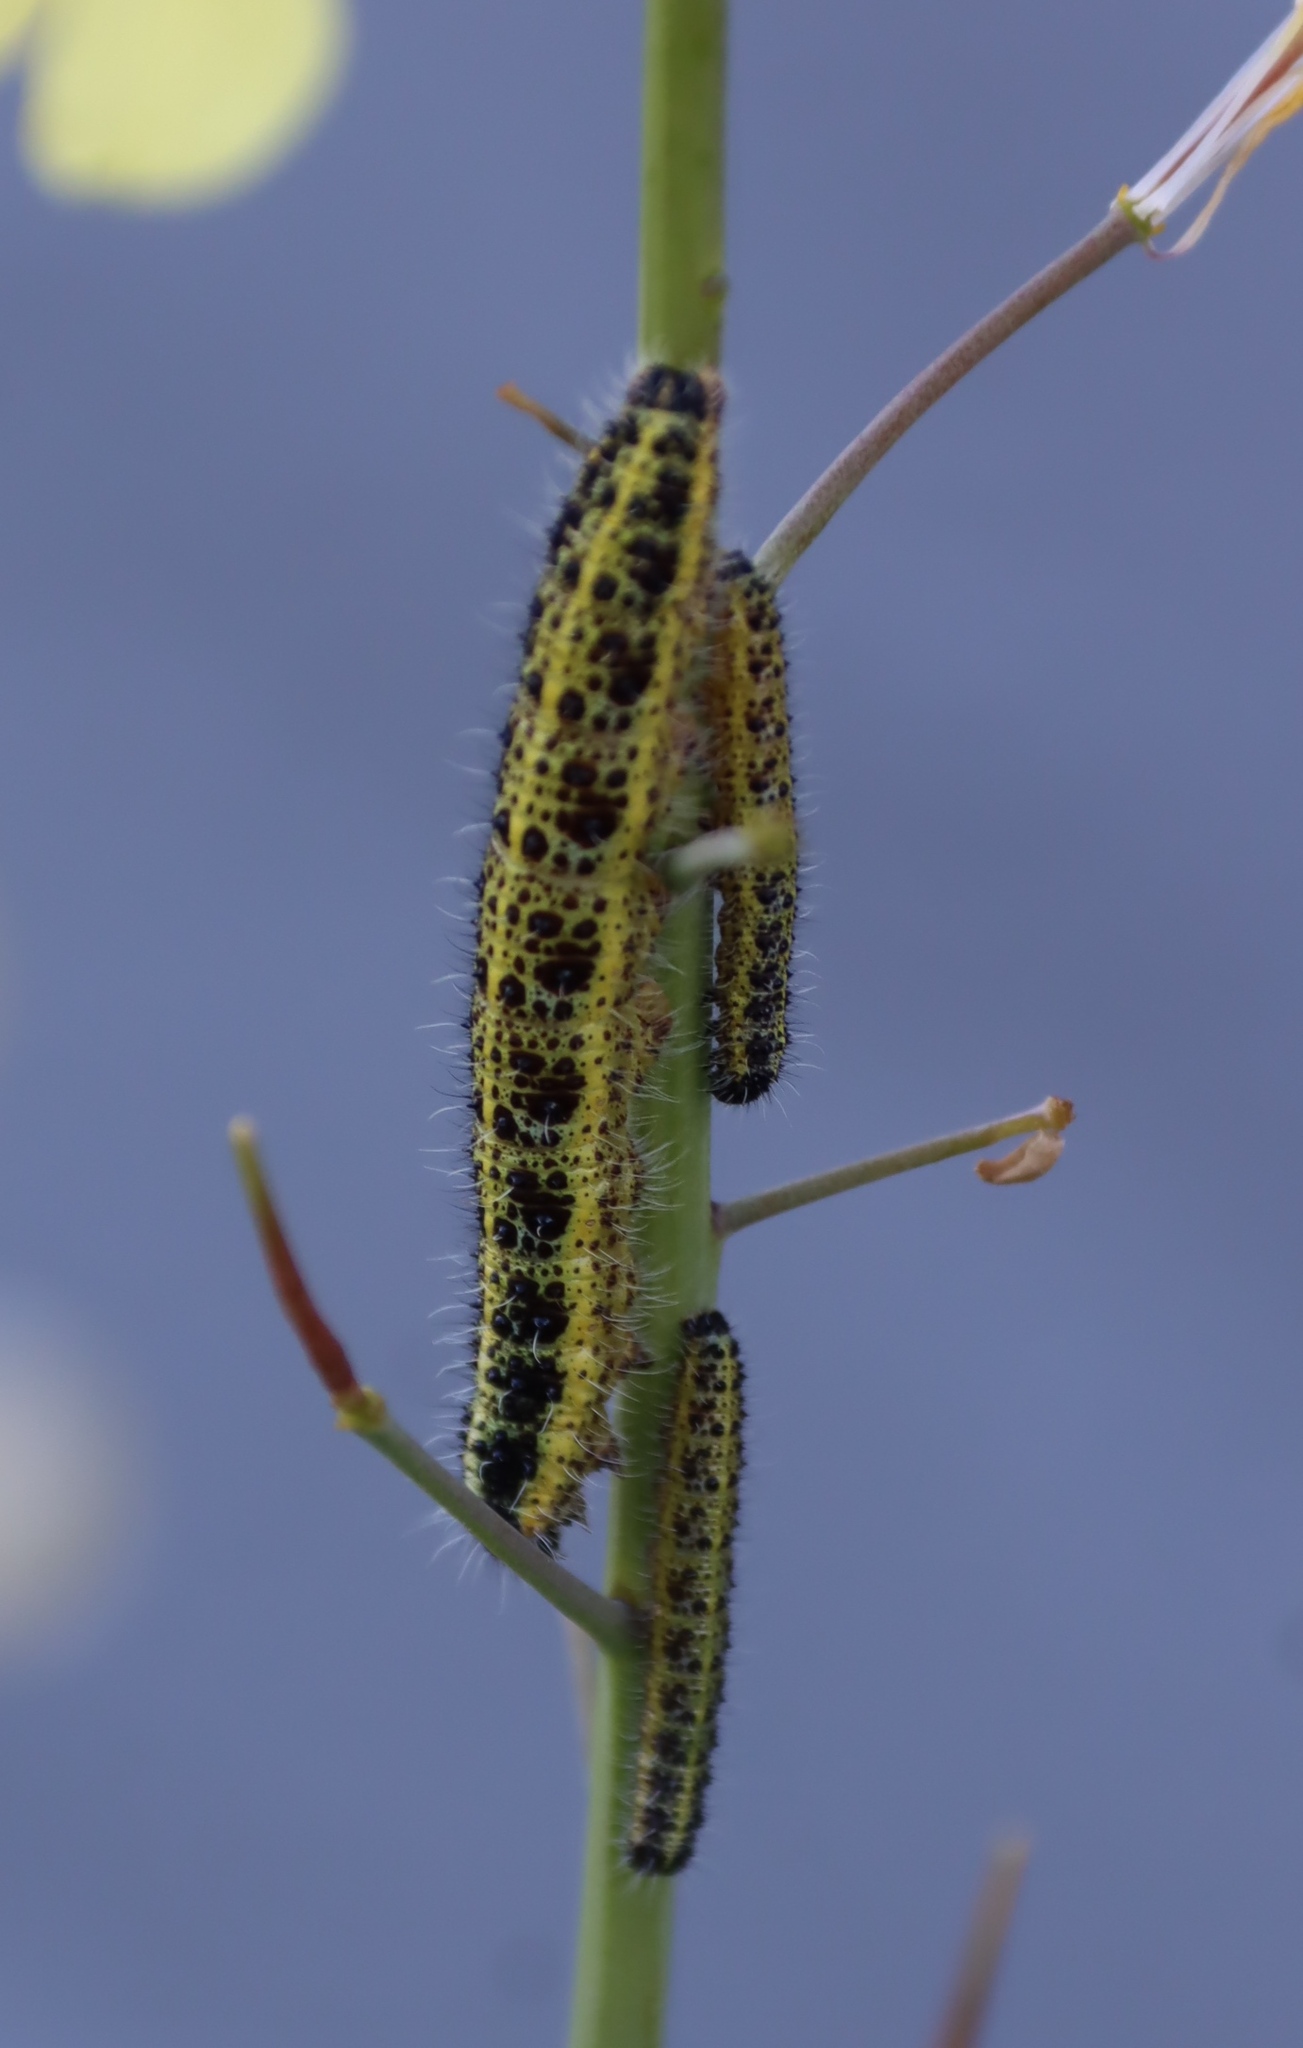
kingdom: Animalia
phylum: Arthropoda
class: Insecta
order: Lepidoptera
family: Pieridae
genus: Pieris
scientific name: Pieris brassicae
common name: Large white
